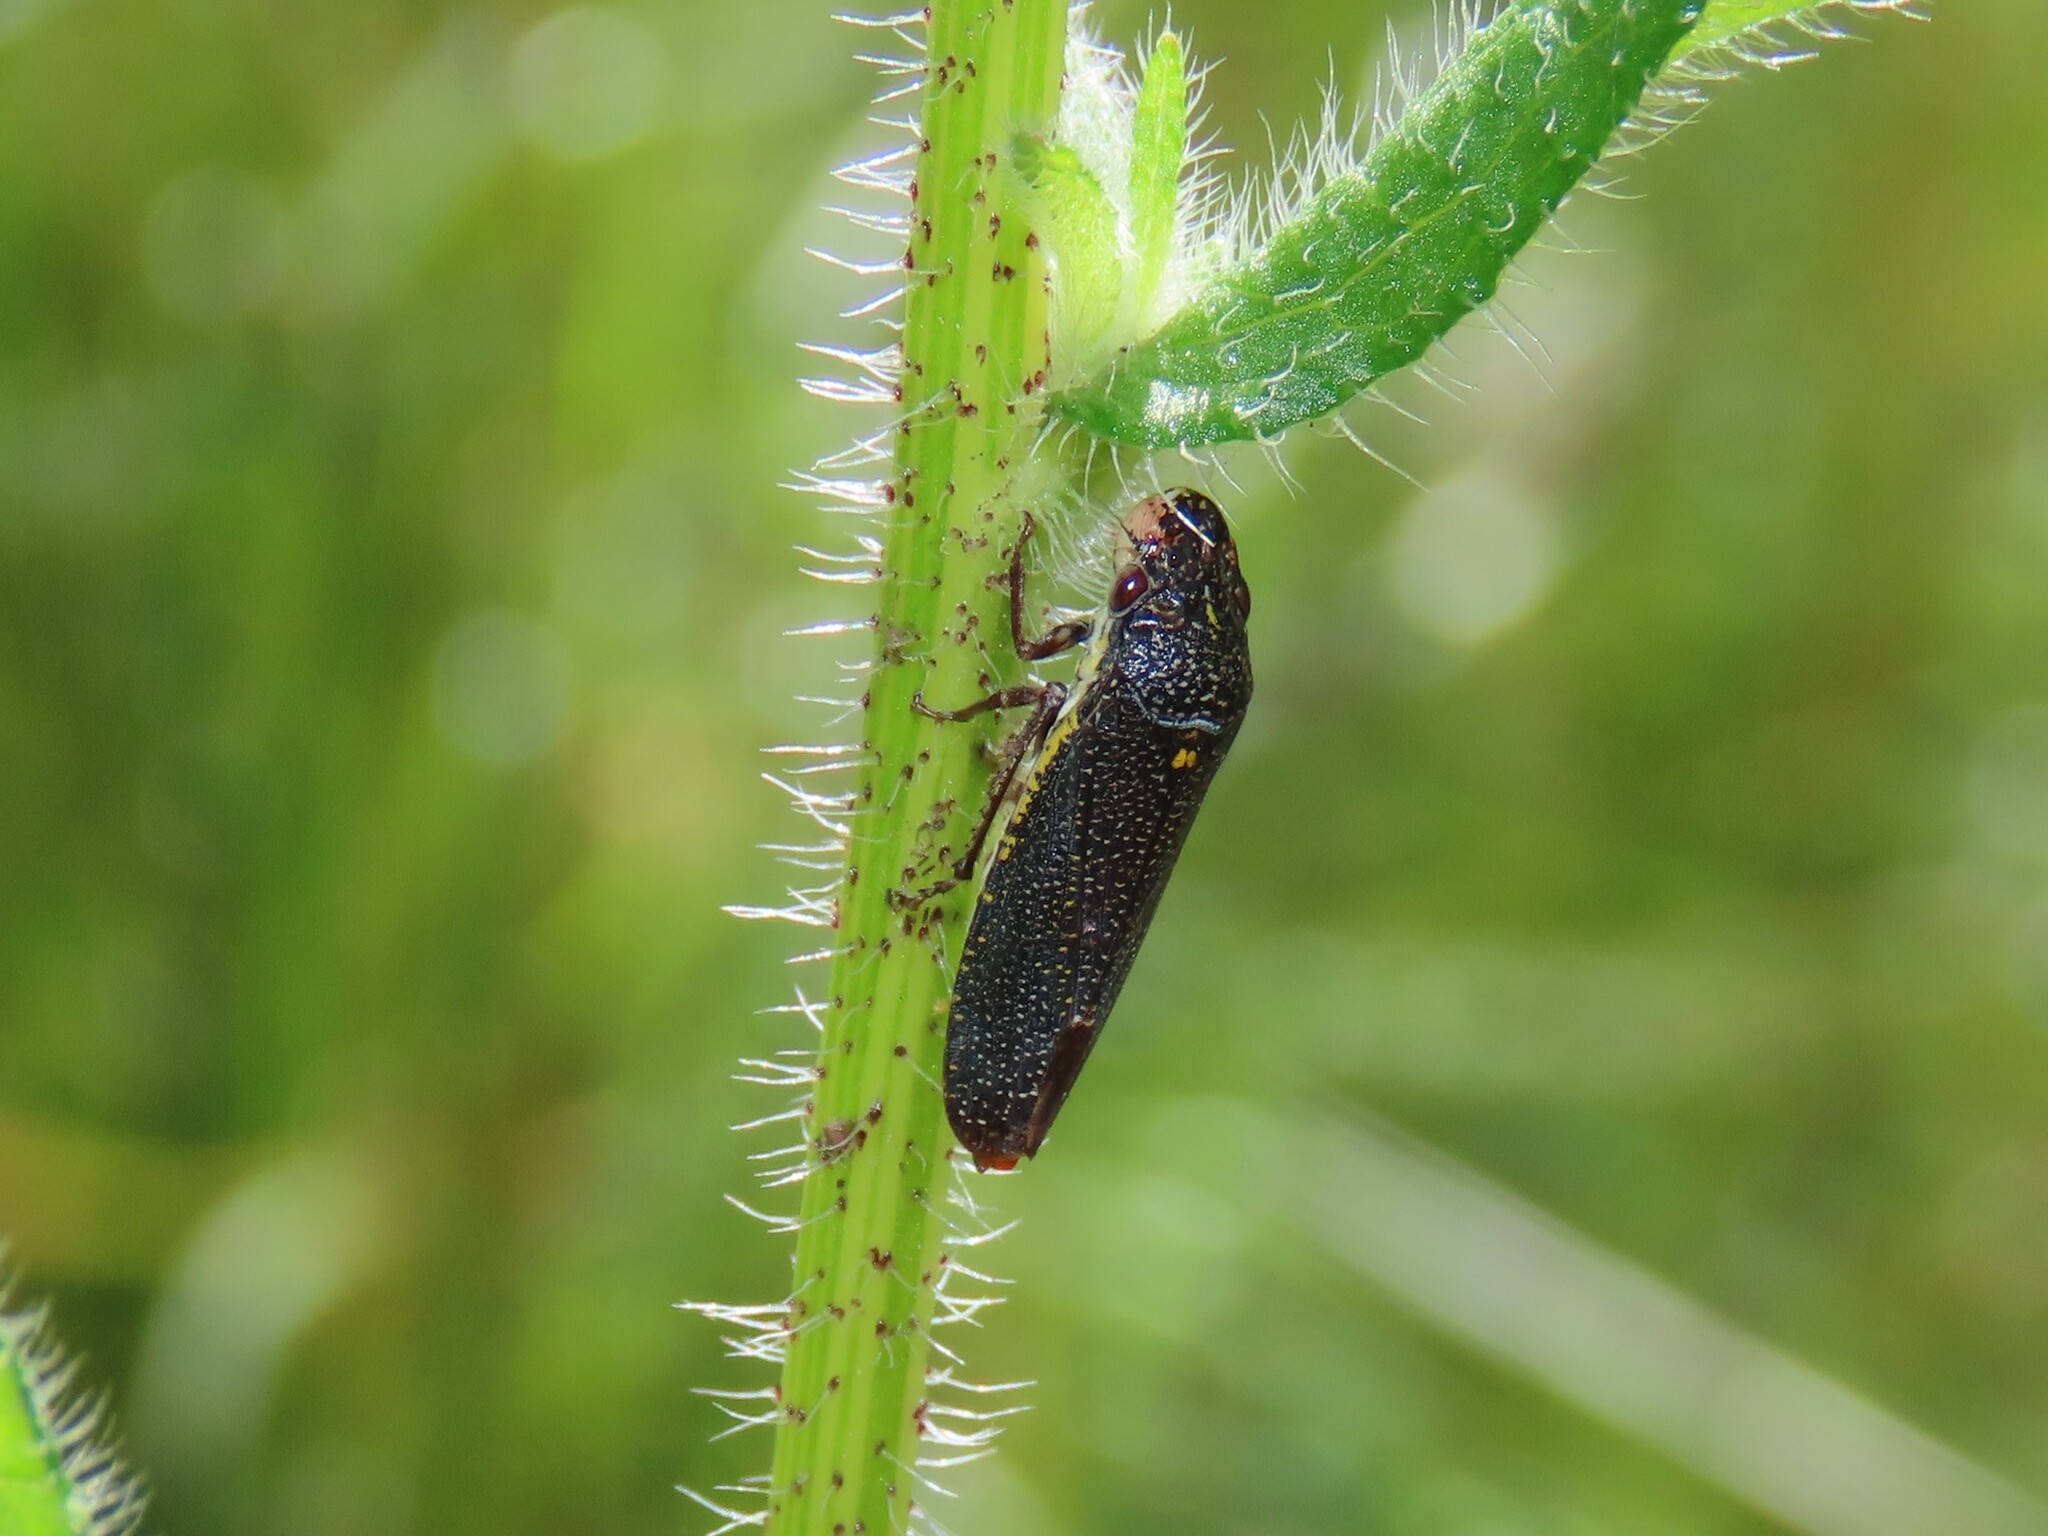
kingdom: Animalia
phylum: Arthropoda
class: Insecta
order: Hemiptera
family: Cicadellidae
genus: Paraulacizes
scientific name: Paraulacizes irrorata
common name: Speckled sharpshooter
